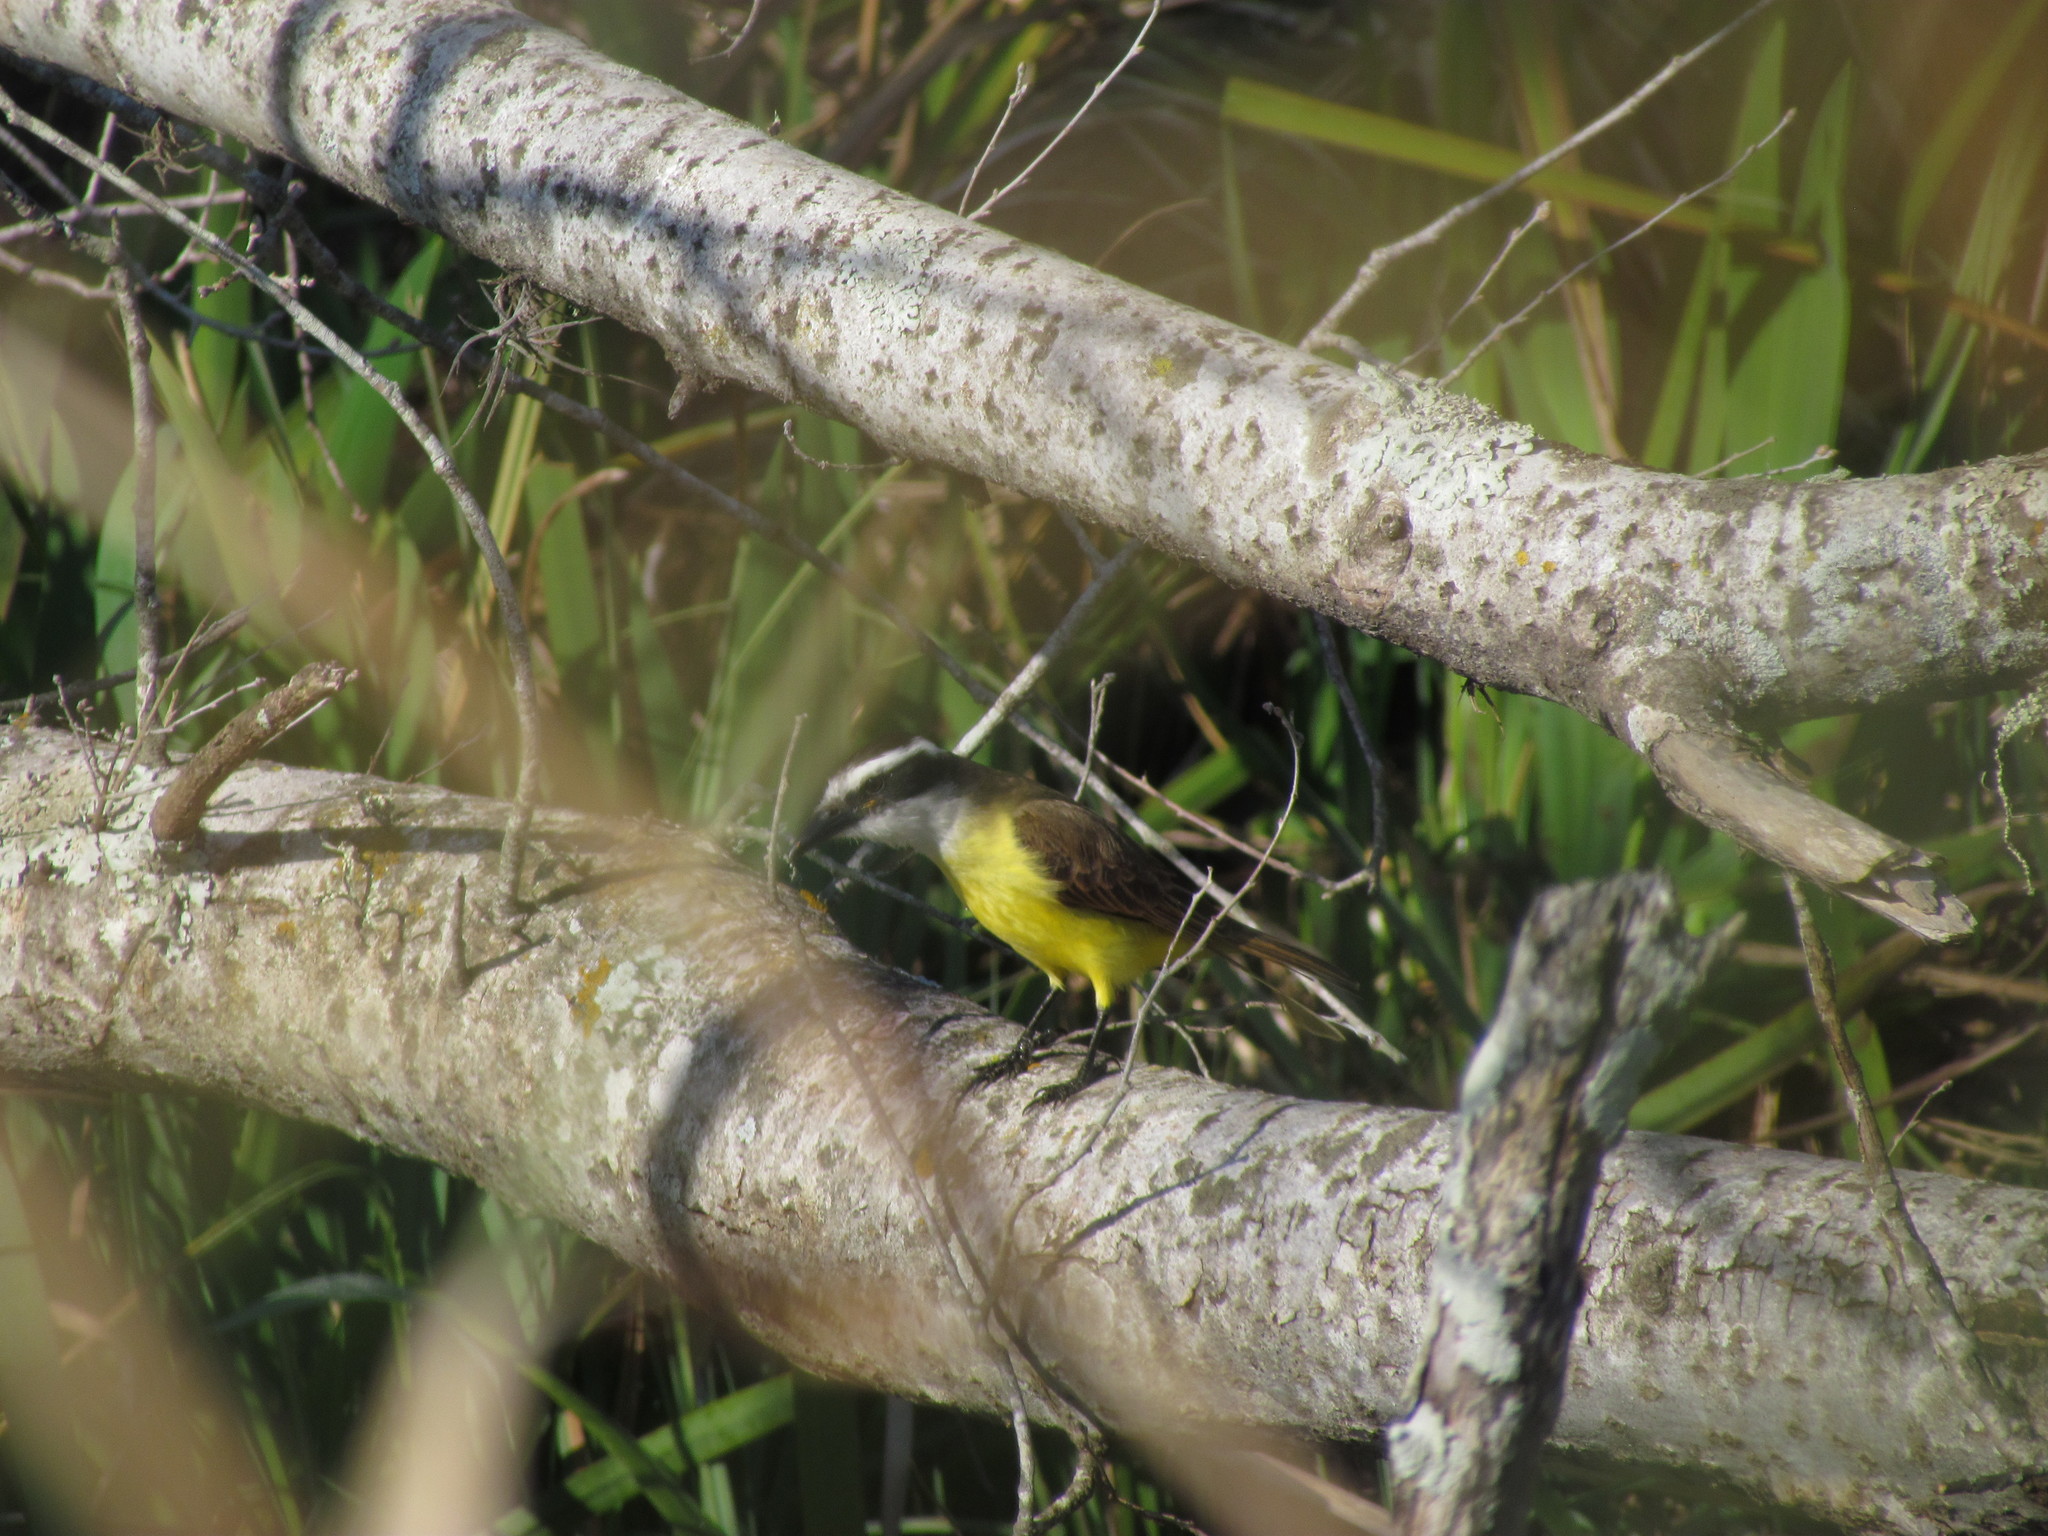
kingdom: Animalia
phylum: Chordata
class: Aves
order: Passeriformes
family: Tyrannidae
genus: Pitangus
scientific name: Pitangus sulphuratus
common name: Great kiskadee
